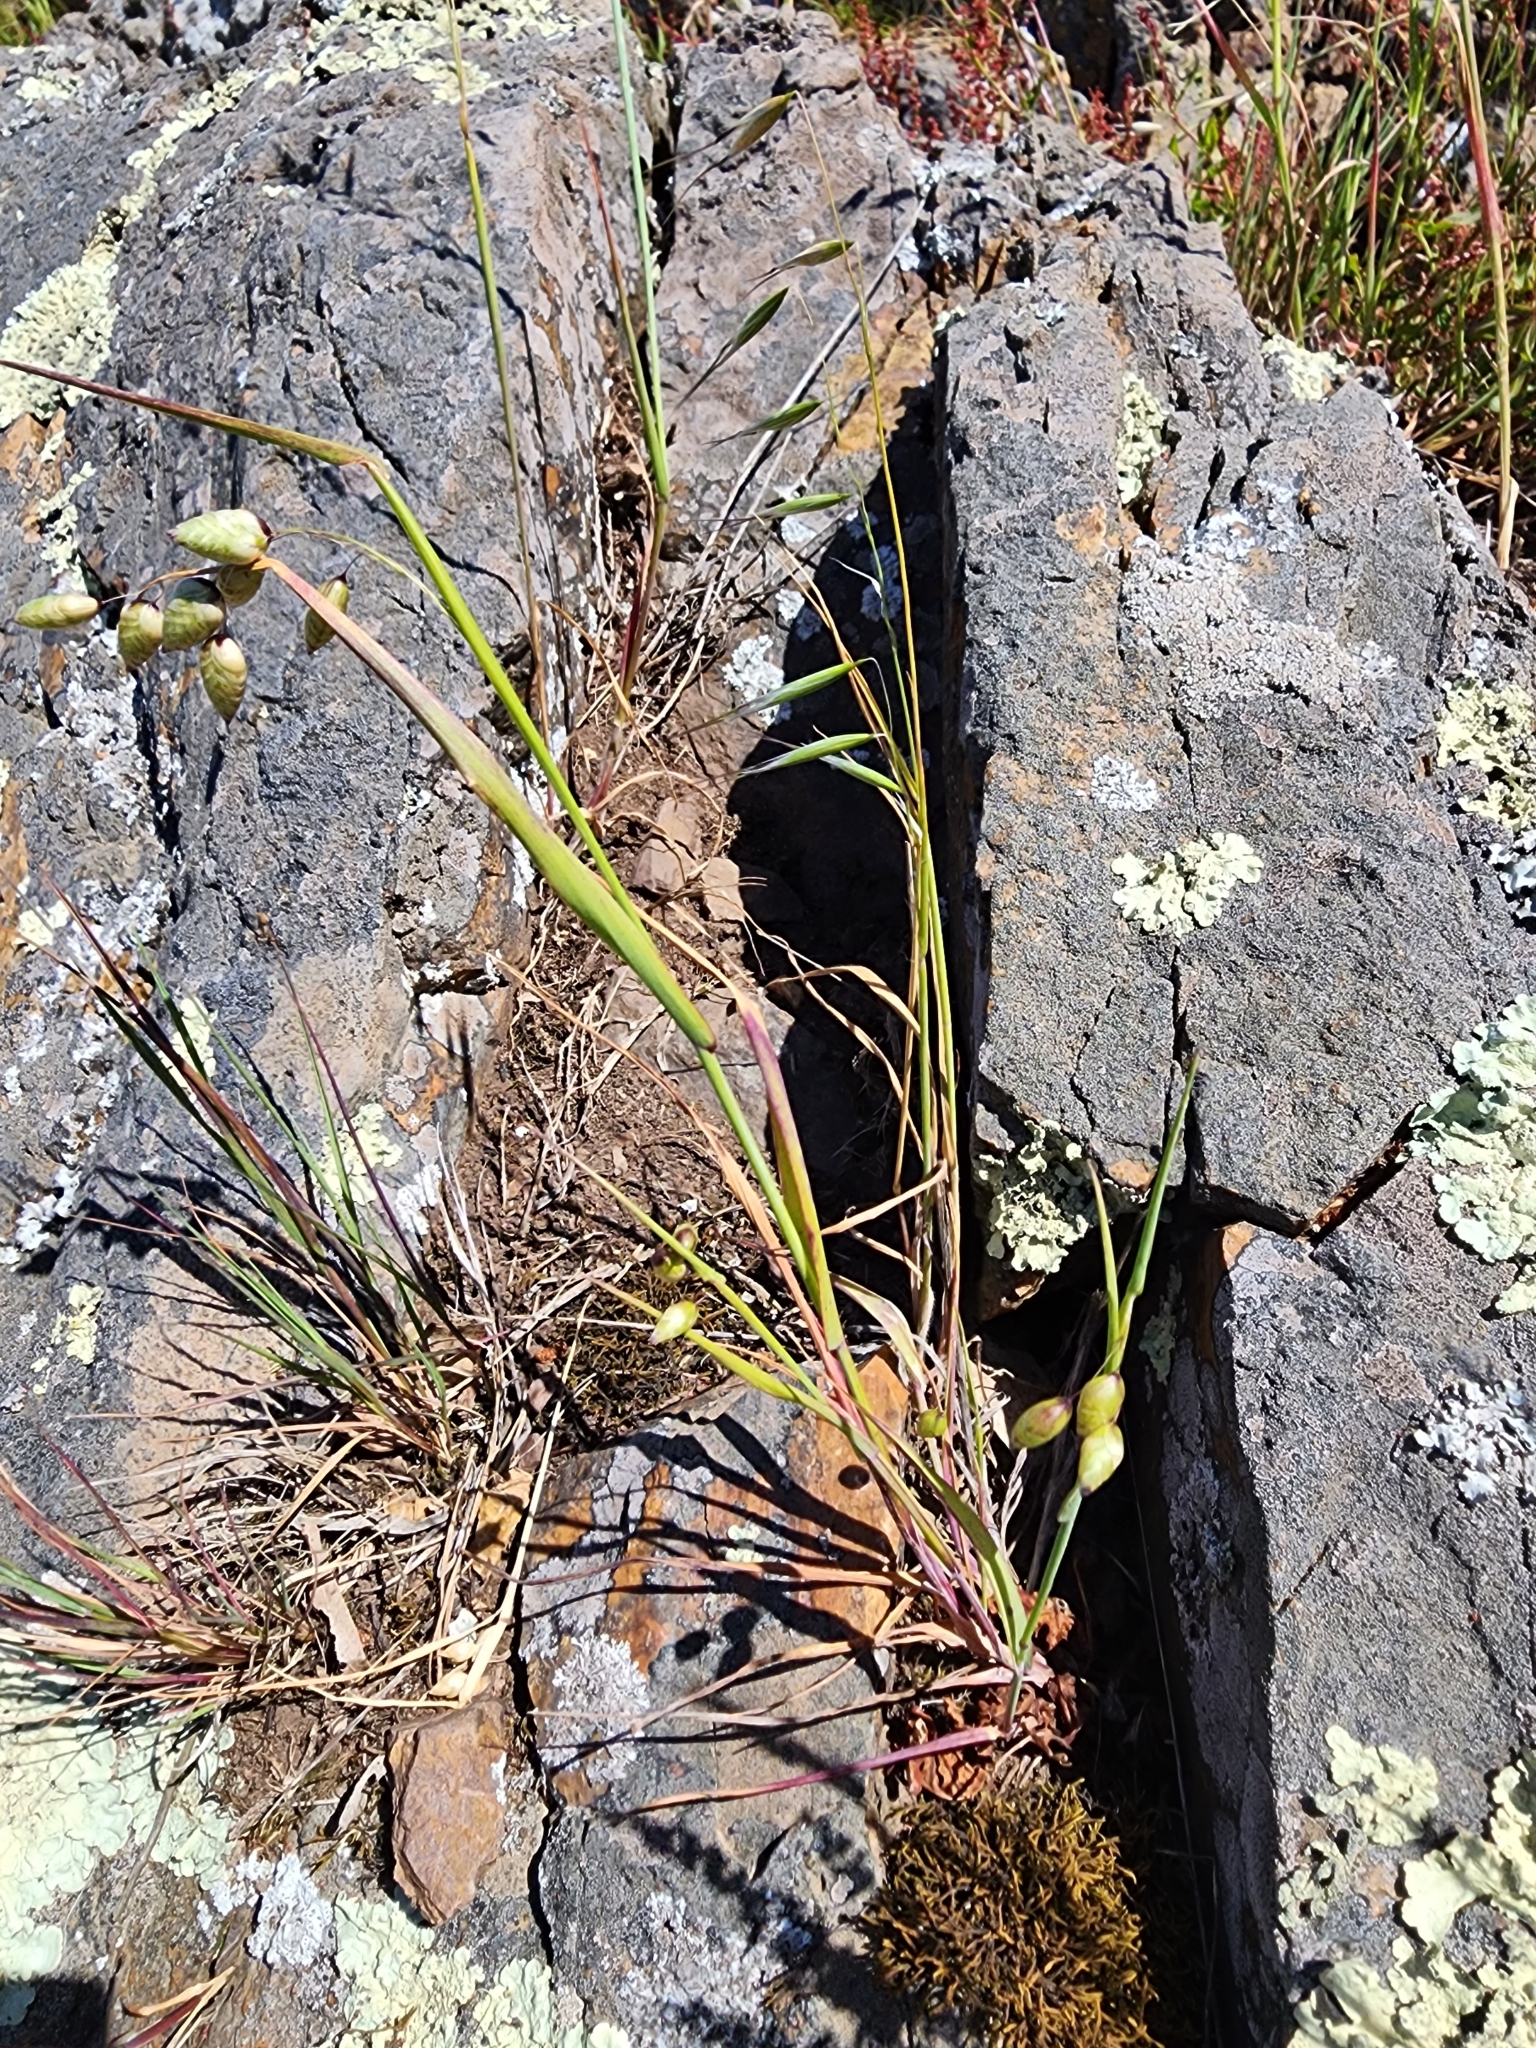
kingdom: Plantae
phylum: Tracheophyta
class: Liliopsida
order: Poales
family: Poaceae
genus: Briza
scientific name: Briza maxima
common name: Big quakinggrass
